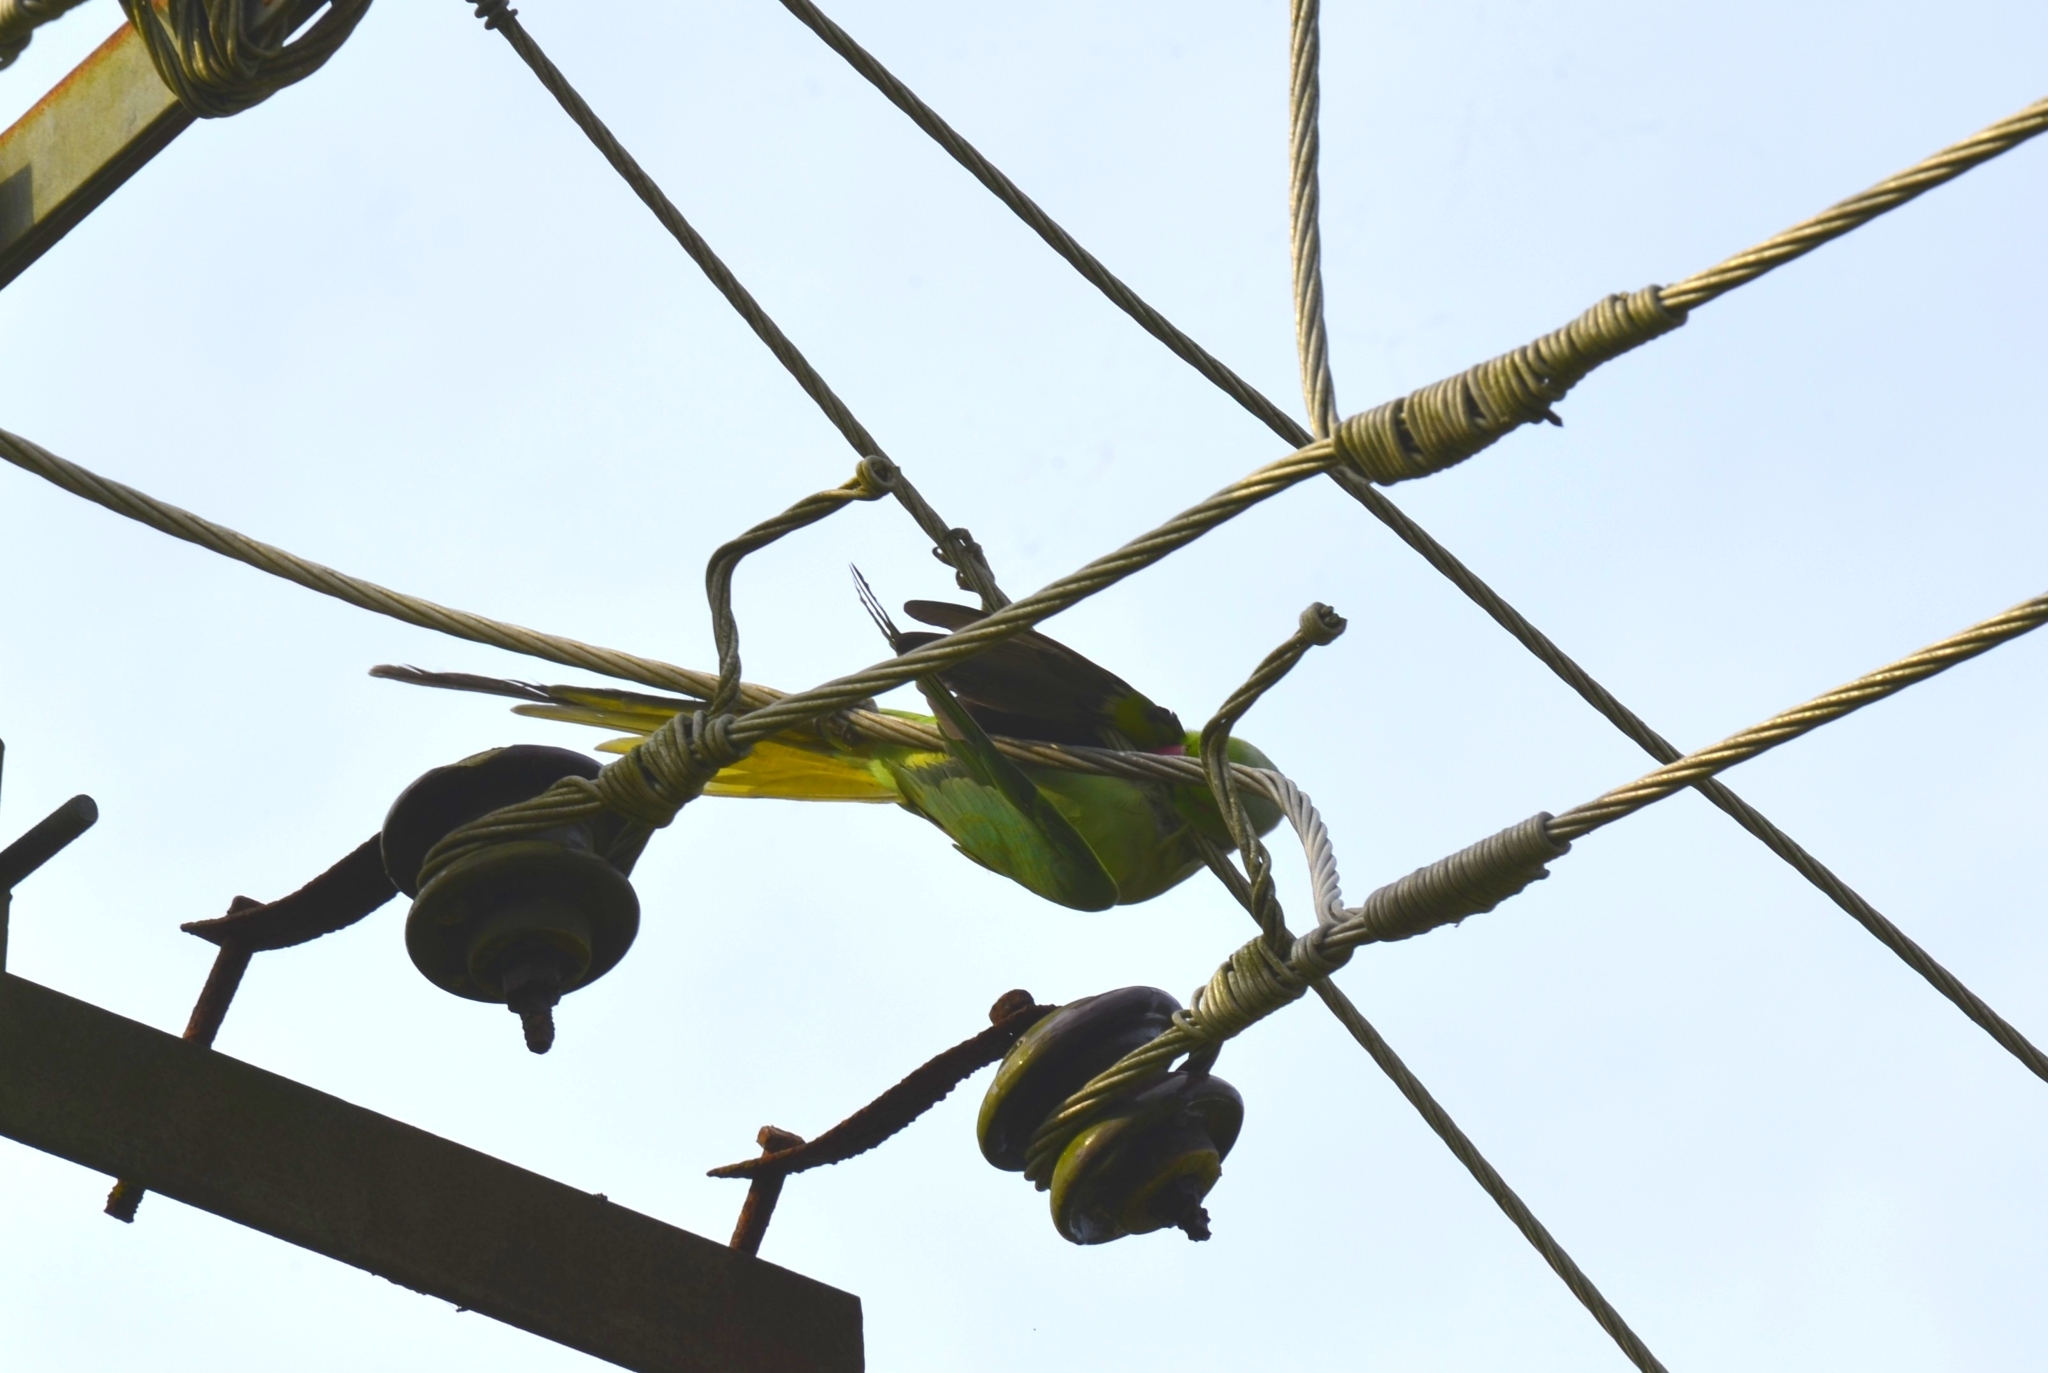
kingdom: Animalia
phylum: Chordata
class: Aves
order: Psittaciformes
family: Psittacidae
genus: Psittacula
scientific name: Psittacula krameri
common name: Rose-ringed parakeet
